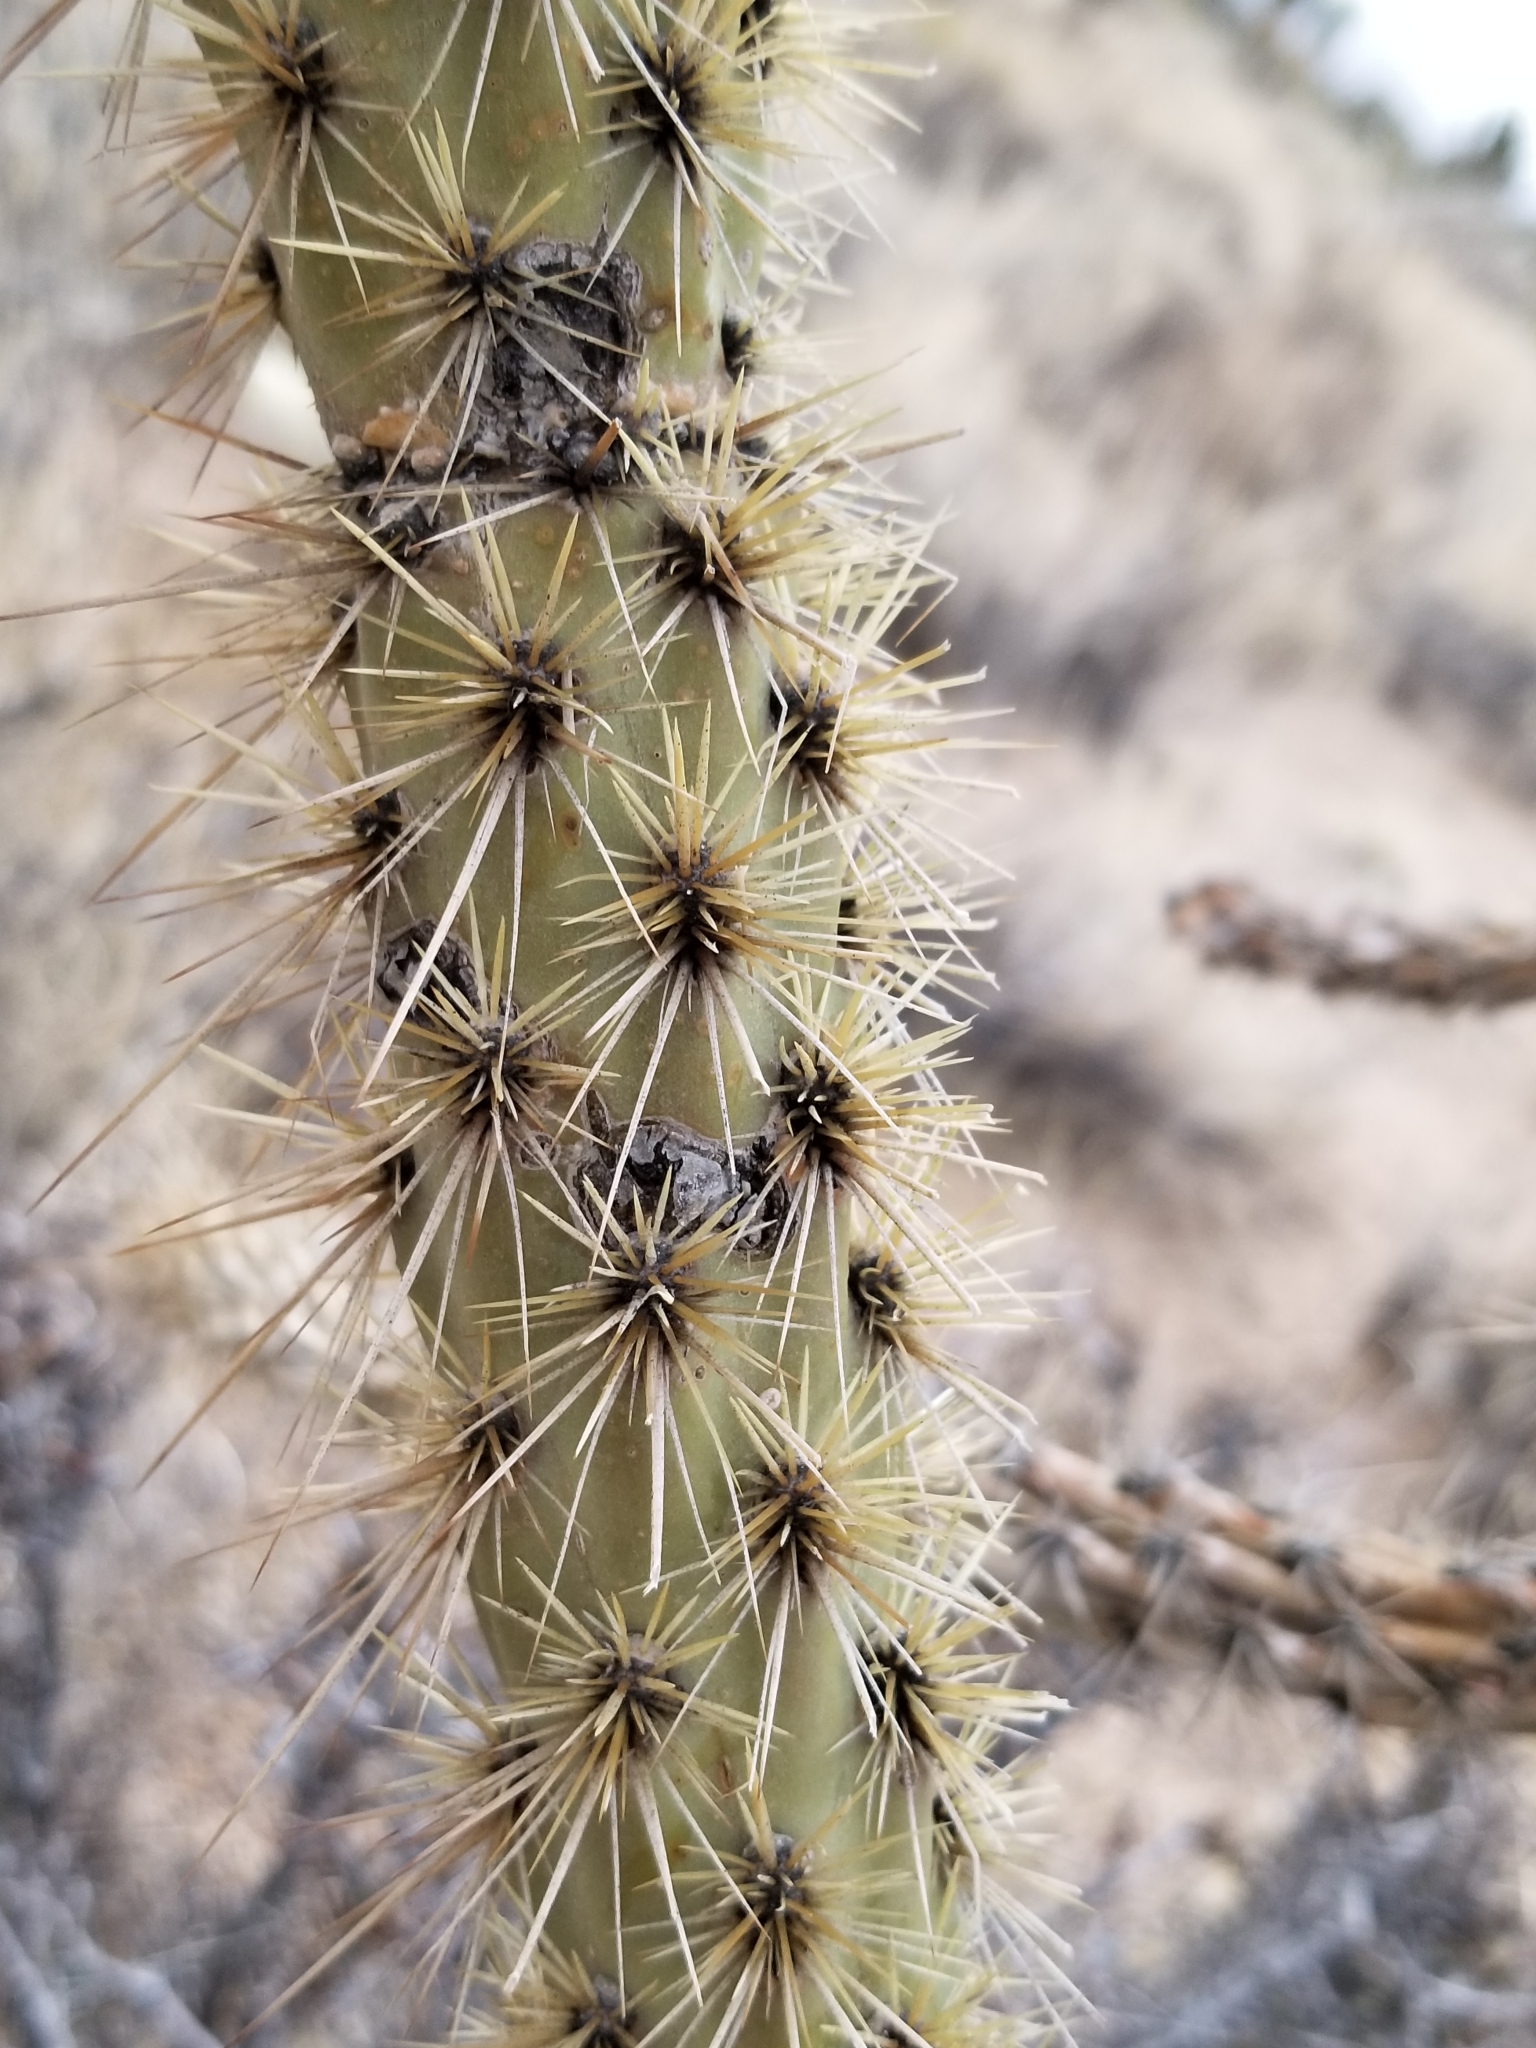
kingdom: Plantae
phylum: Tracheophyta
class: Magnoliopsida
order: Caryophyllales
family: Cactaceae
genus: Cylindropuntia
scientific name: Cylindropuntia acanthocarpa
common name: Buckhorn cholla
